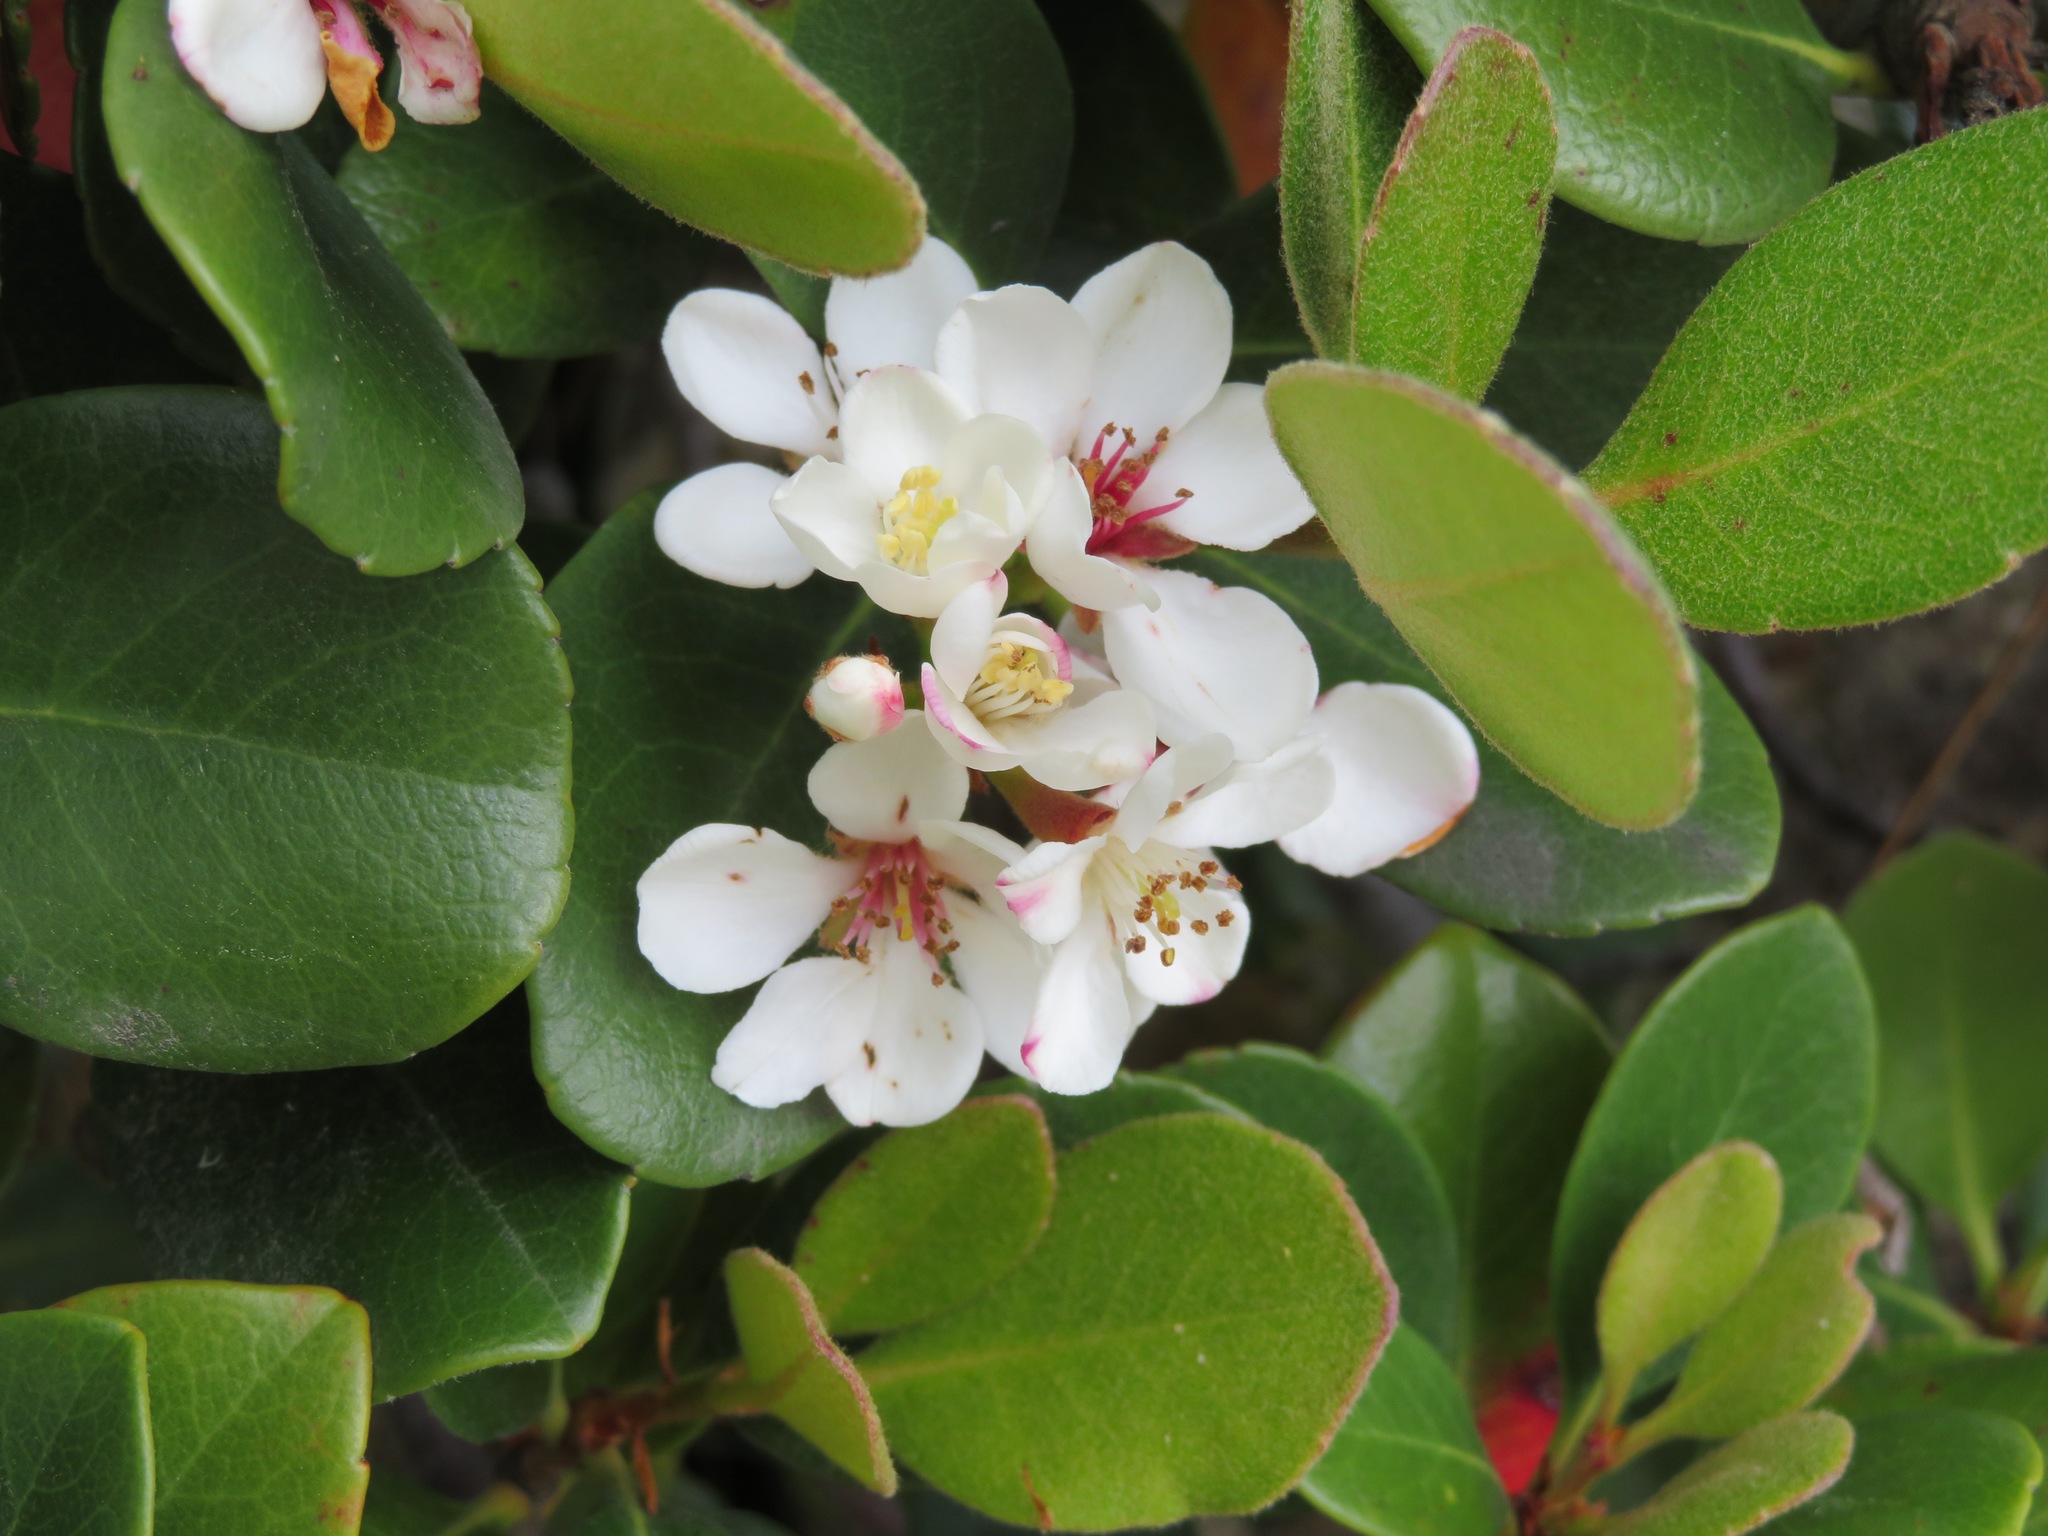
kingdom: Plantae
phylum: Tracheophyta
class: Magnoliopsida
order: Rosales
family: Rosaceae
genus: Rhaphiolepis
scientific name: Rhaphiolepis indica
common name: India-hawthorn
